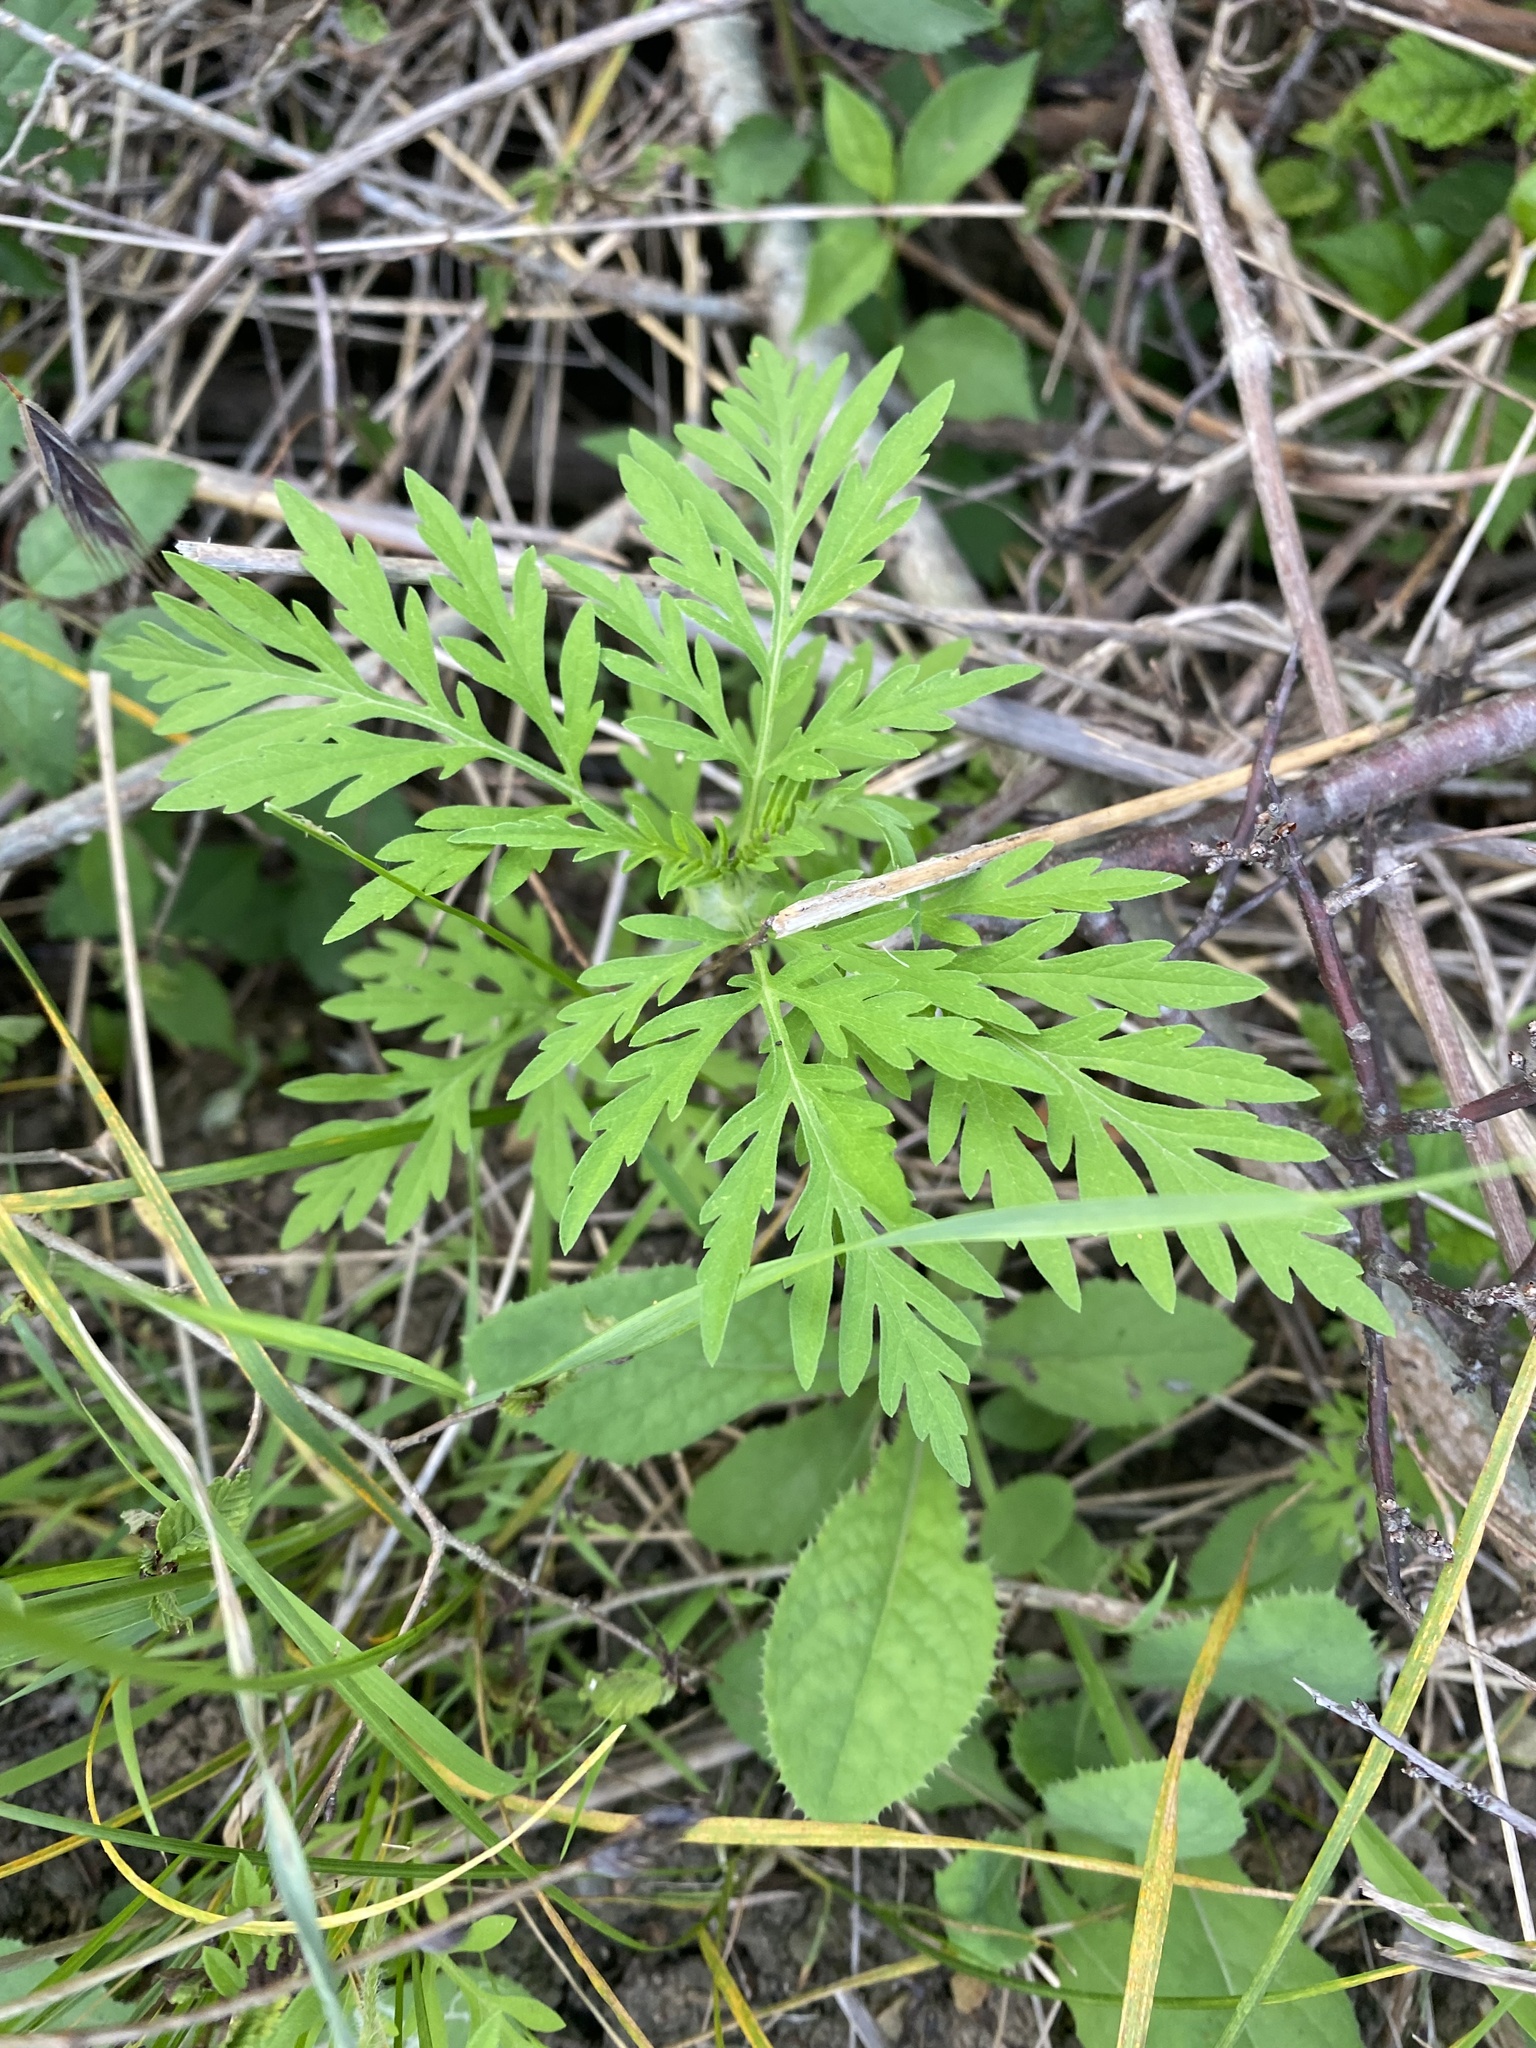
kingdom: Plantae
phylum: Tracheophyta
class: Magnoliopsida
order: Asterales
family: Asteraceae
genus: Ambrosia
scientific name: Ambrosia artemisiifolia
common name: Annual ragweed
